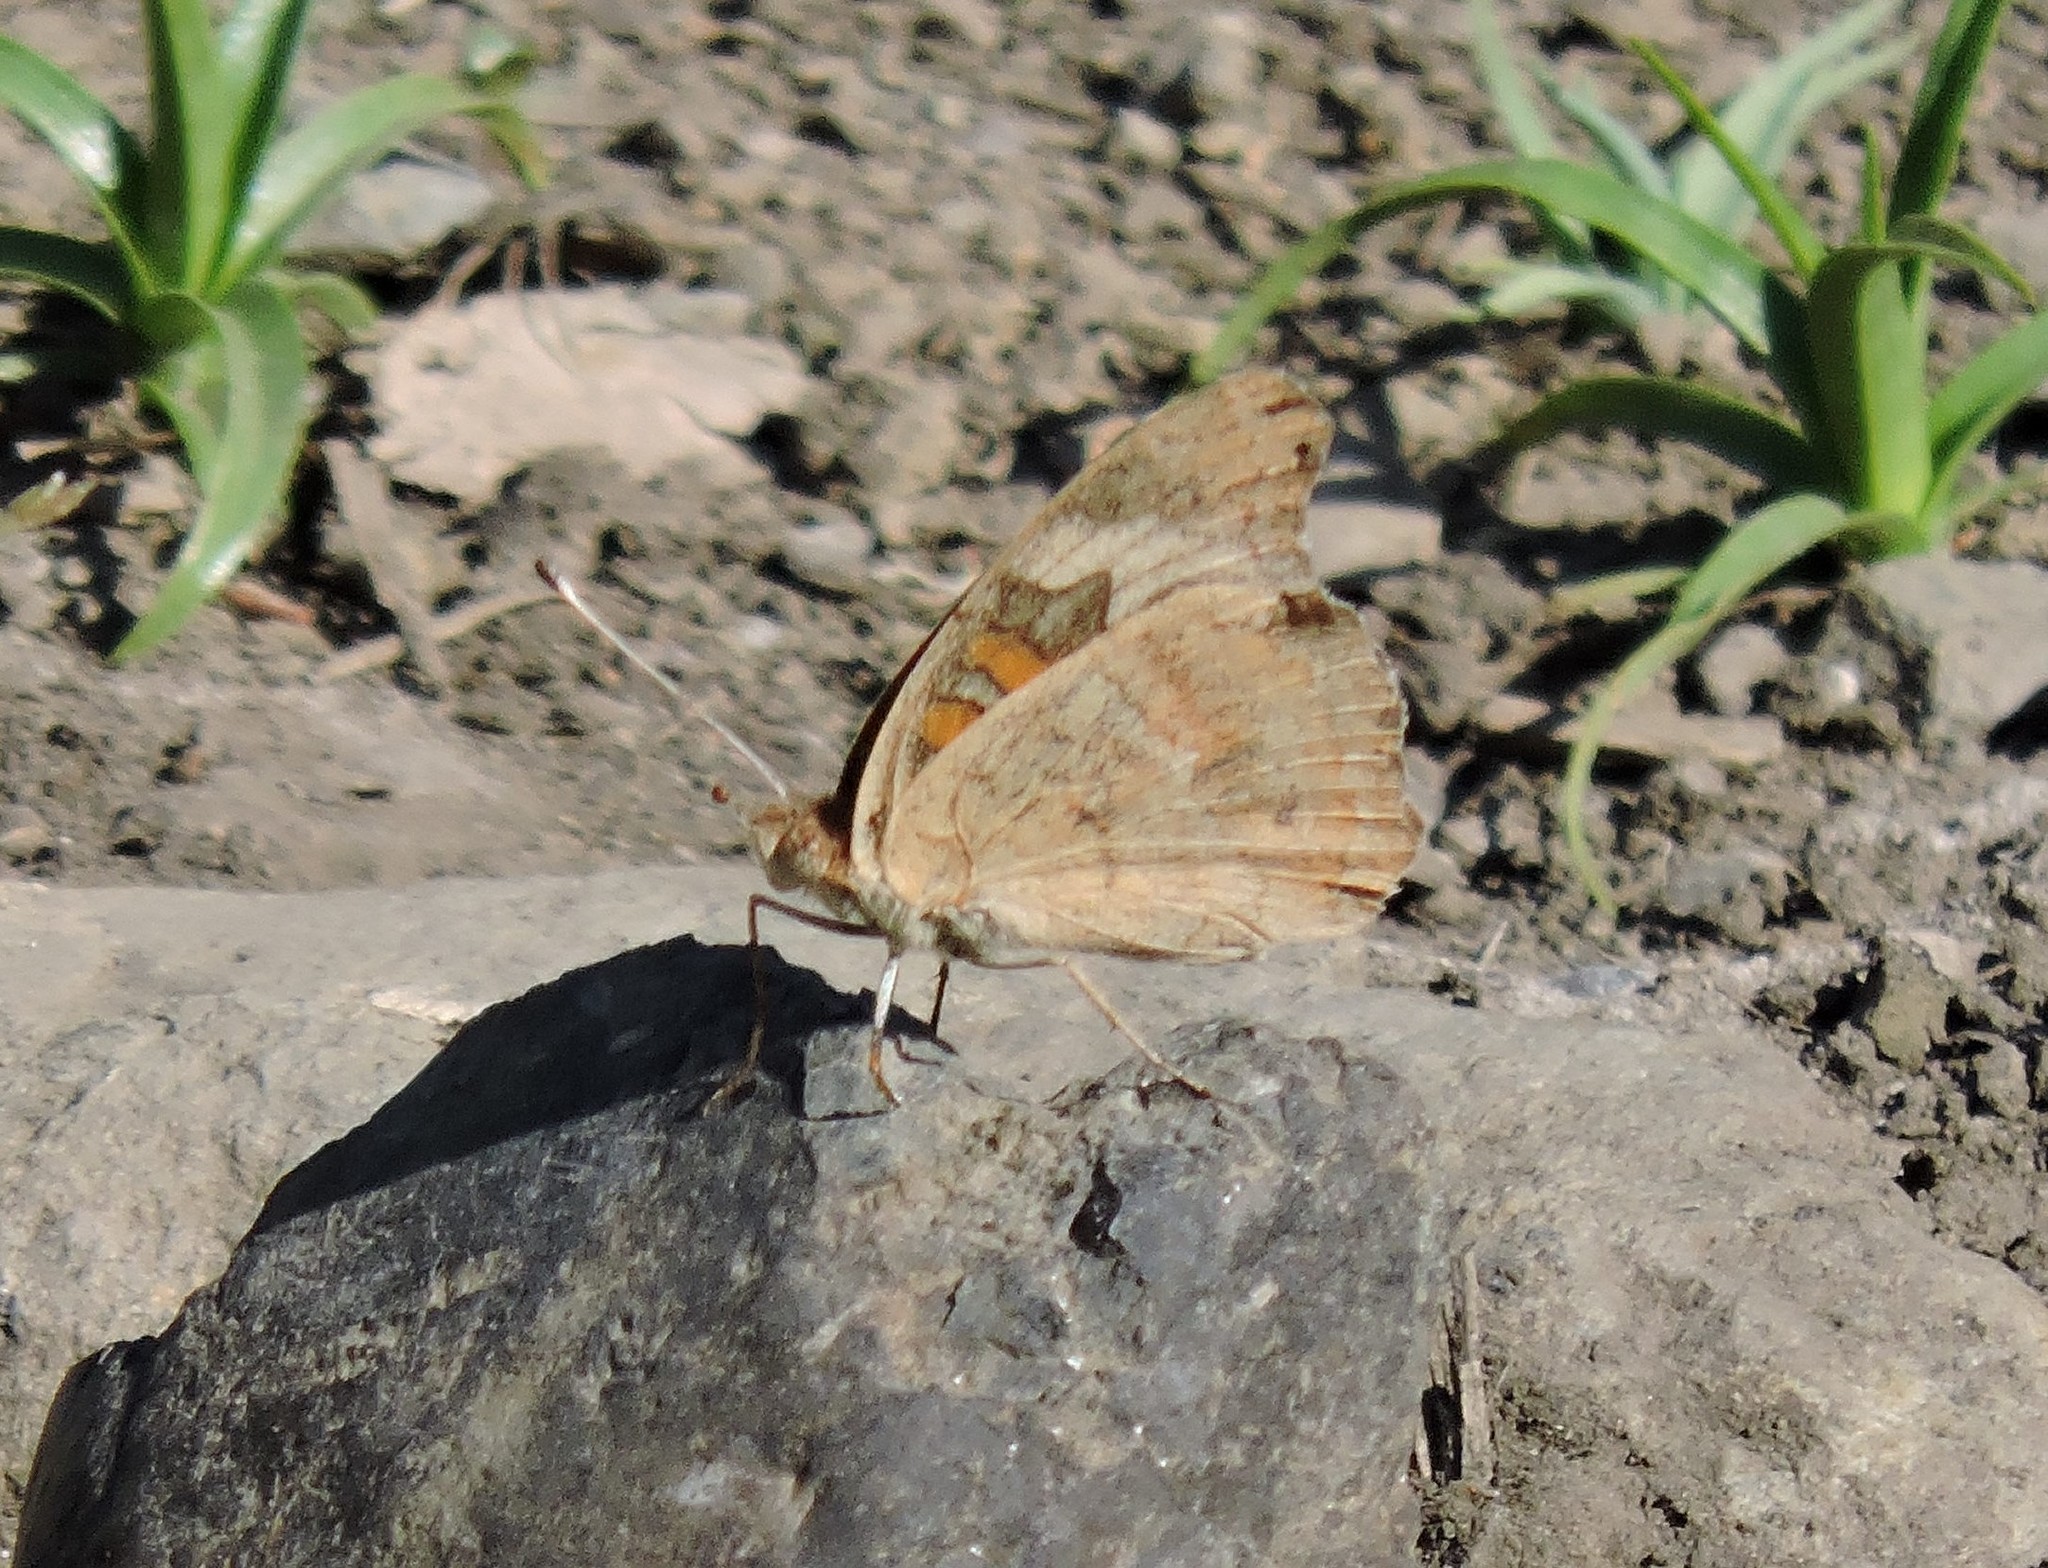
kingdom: Animalia
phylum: Arthropoda
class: Insecta
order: Lepidoptera
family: Nymphalidae
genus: Junonia
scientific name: Junonia grisea
